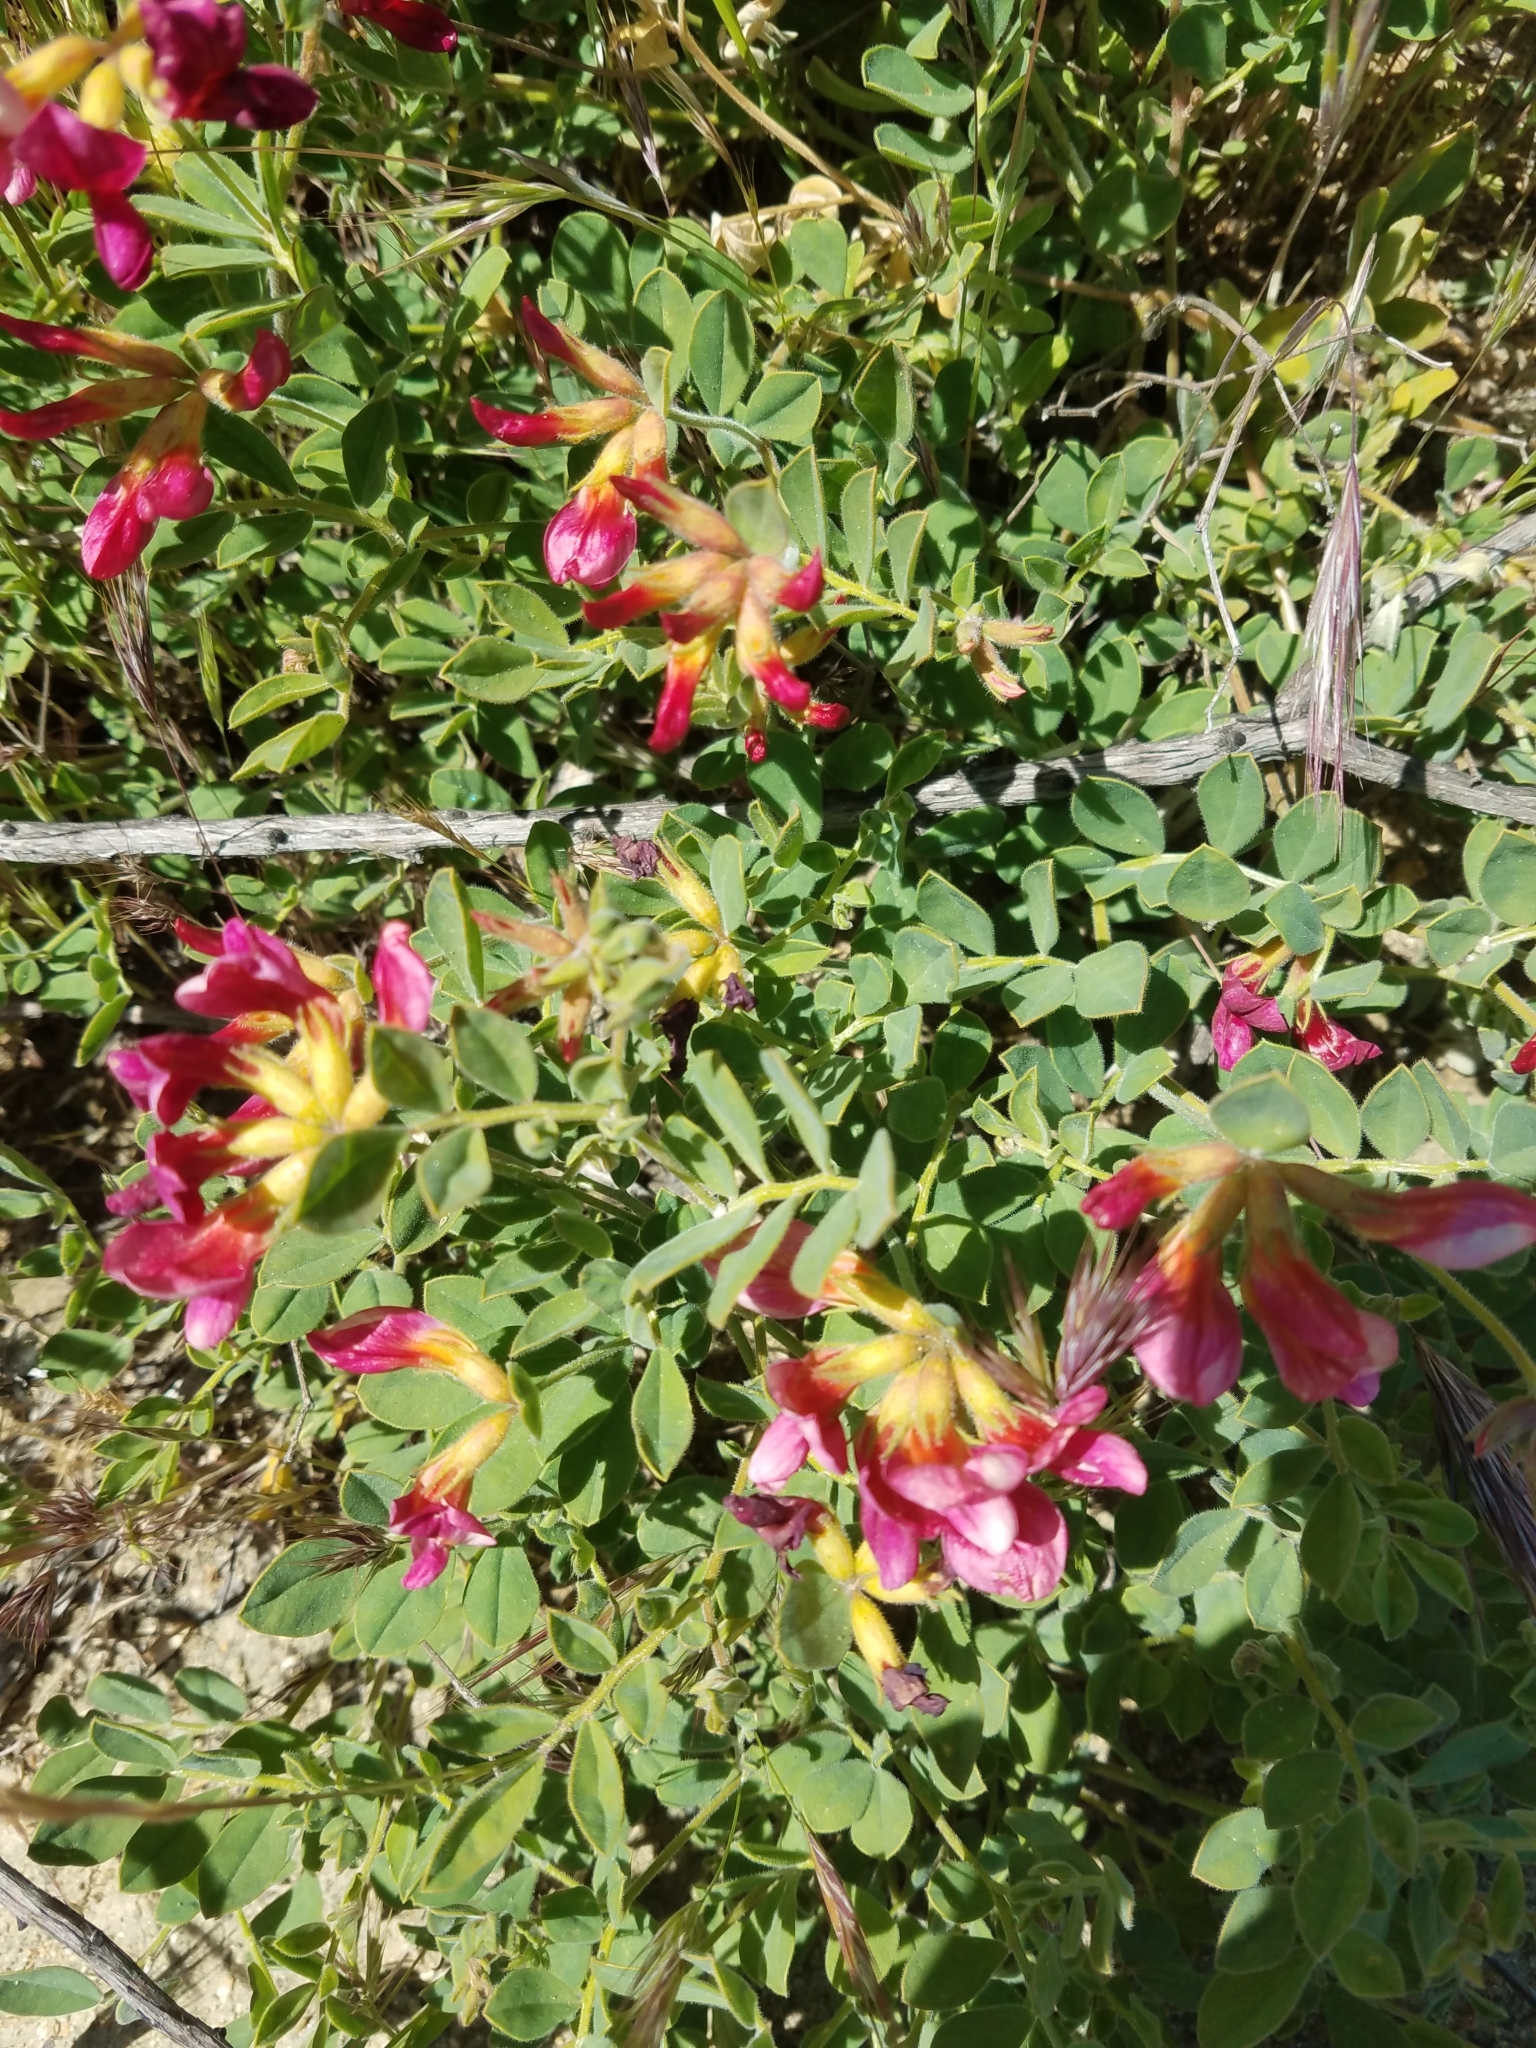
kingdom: Plantae
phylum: Tracheophyta
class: Magnoliopsida
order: Fabales
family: Fabaceae
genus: Acmispon
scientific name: Acmispon grandiflorus
